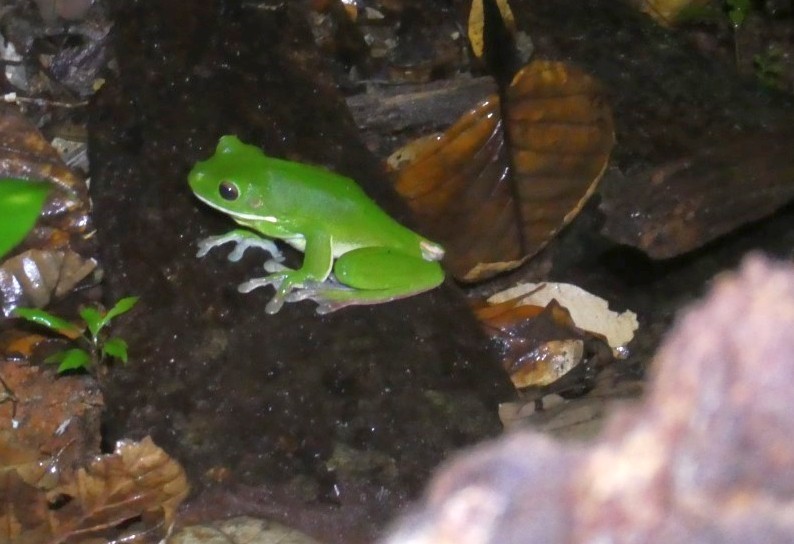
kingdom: Animalia
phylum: Chordata
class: Amphibia
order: Anura
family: Pelodryadidae
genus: Nyctimystes
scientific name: Nyctimystes infrafrenatus
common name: Australian giant treefrog
